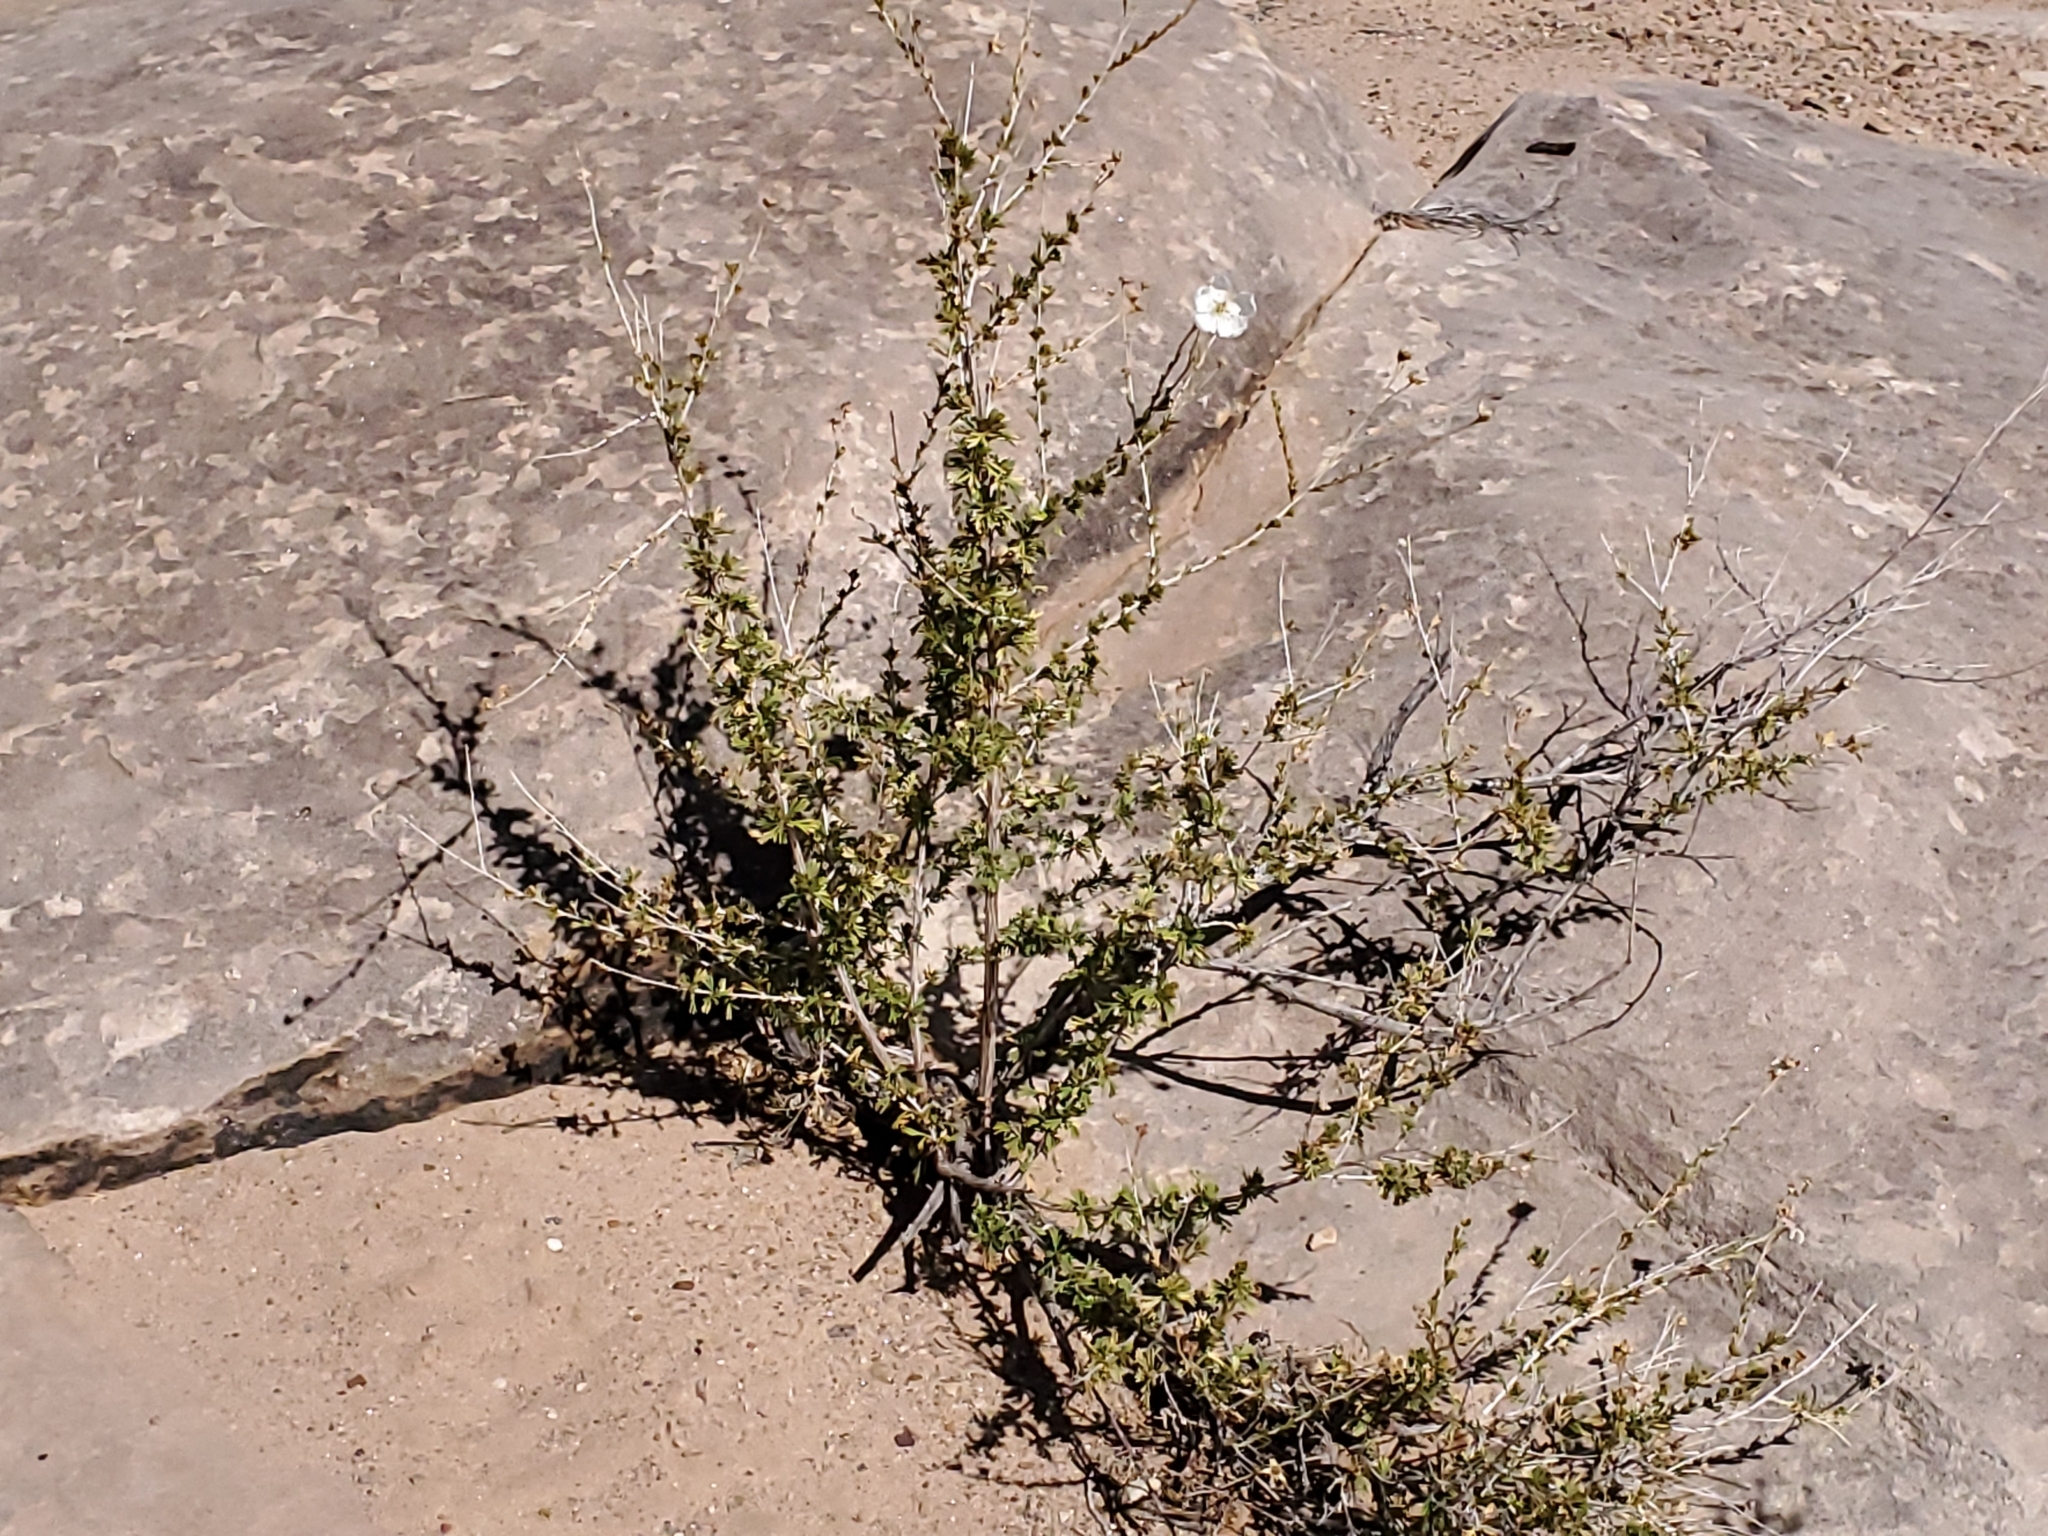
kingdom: Plantae
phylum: Tracheophyta
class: Magnoliopsida
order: Rosales
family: Rosaceae
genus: Fallugia
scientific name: Fallugia paradoxa
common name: Apache-plume
